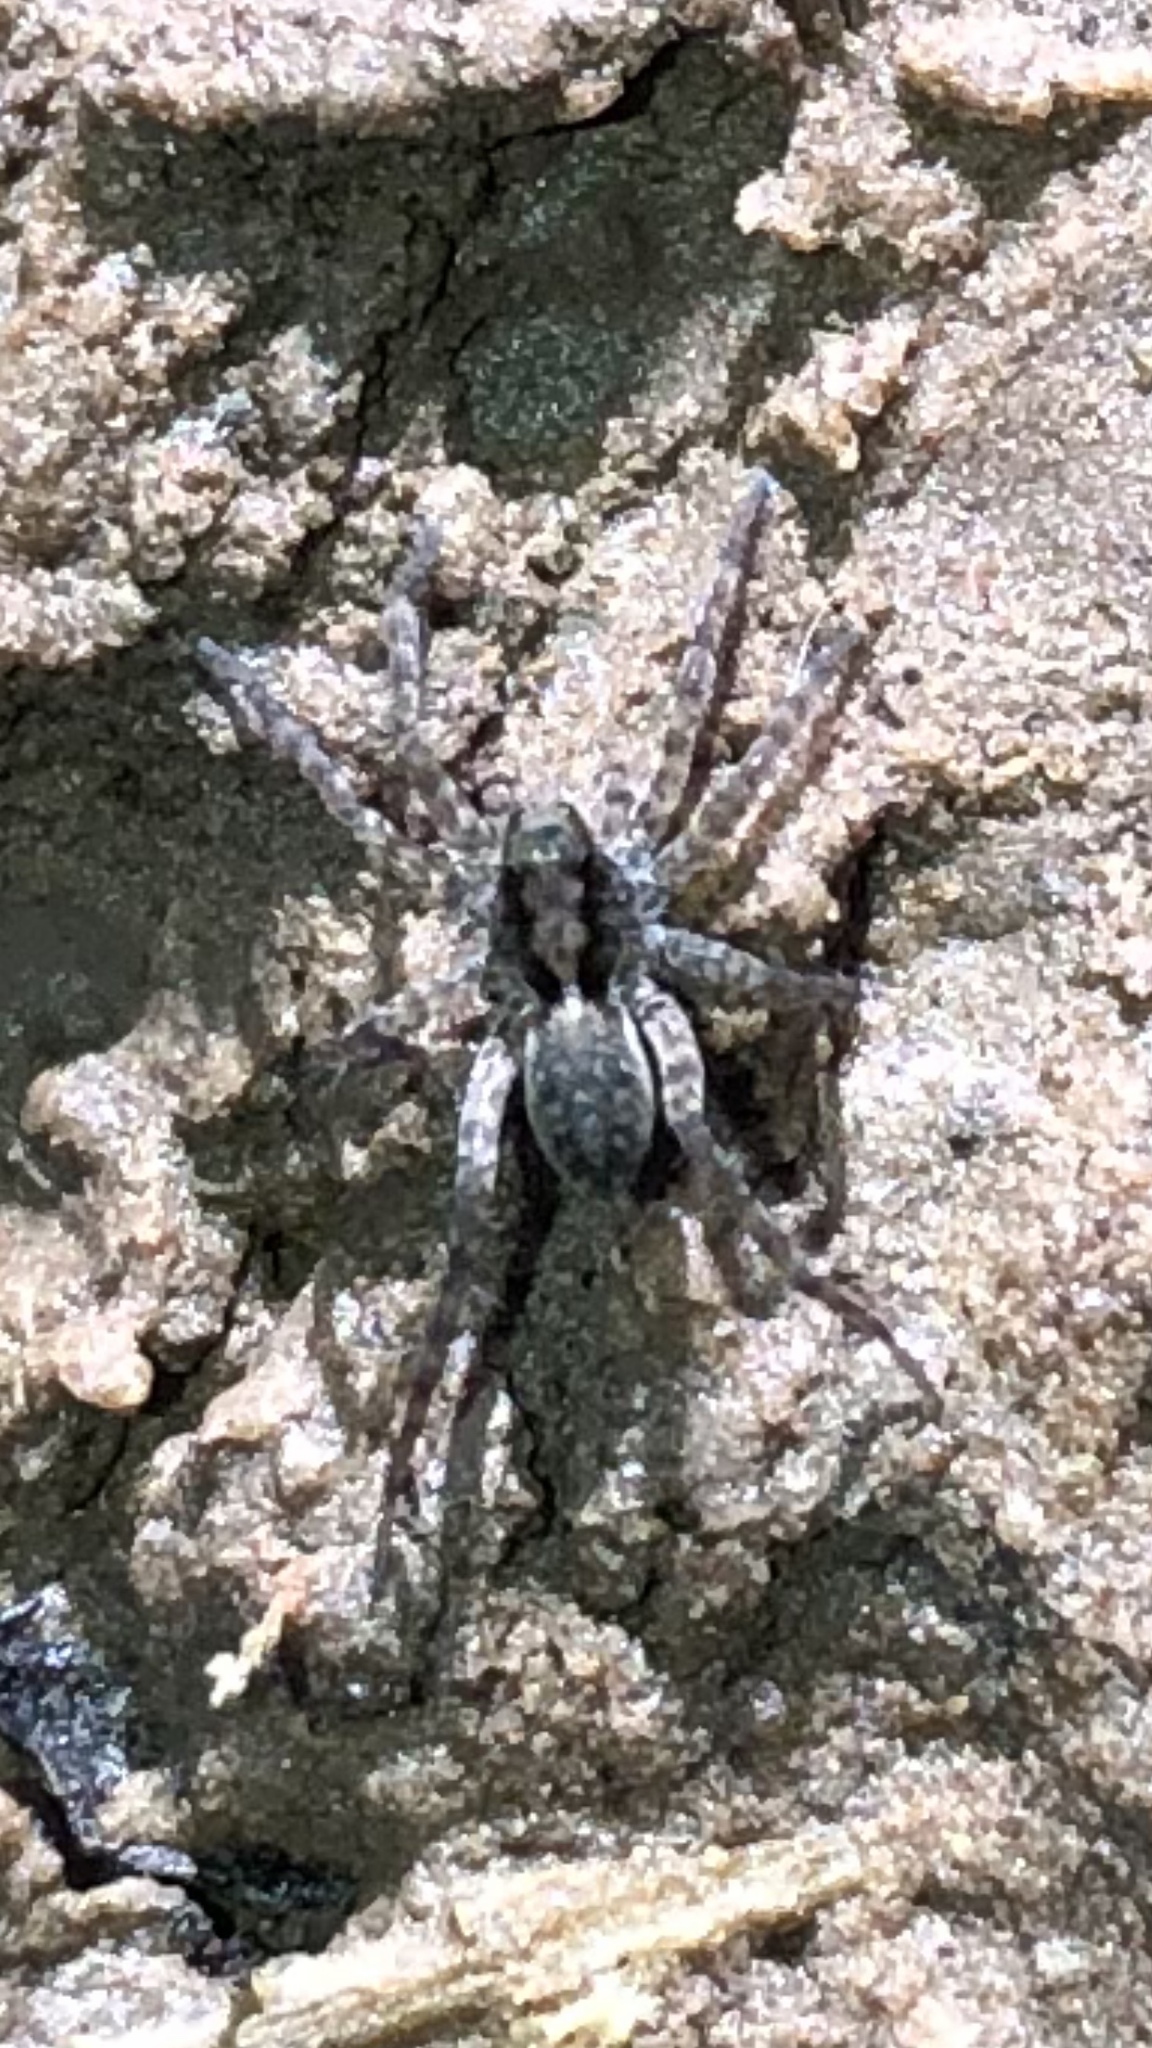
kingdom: Animalia
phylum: Arthropoda
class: Arachnida
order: Araneae
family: Lycosidae
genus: Pardosa
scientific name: Pardosa
